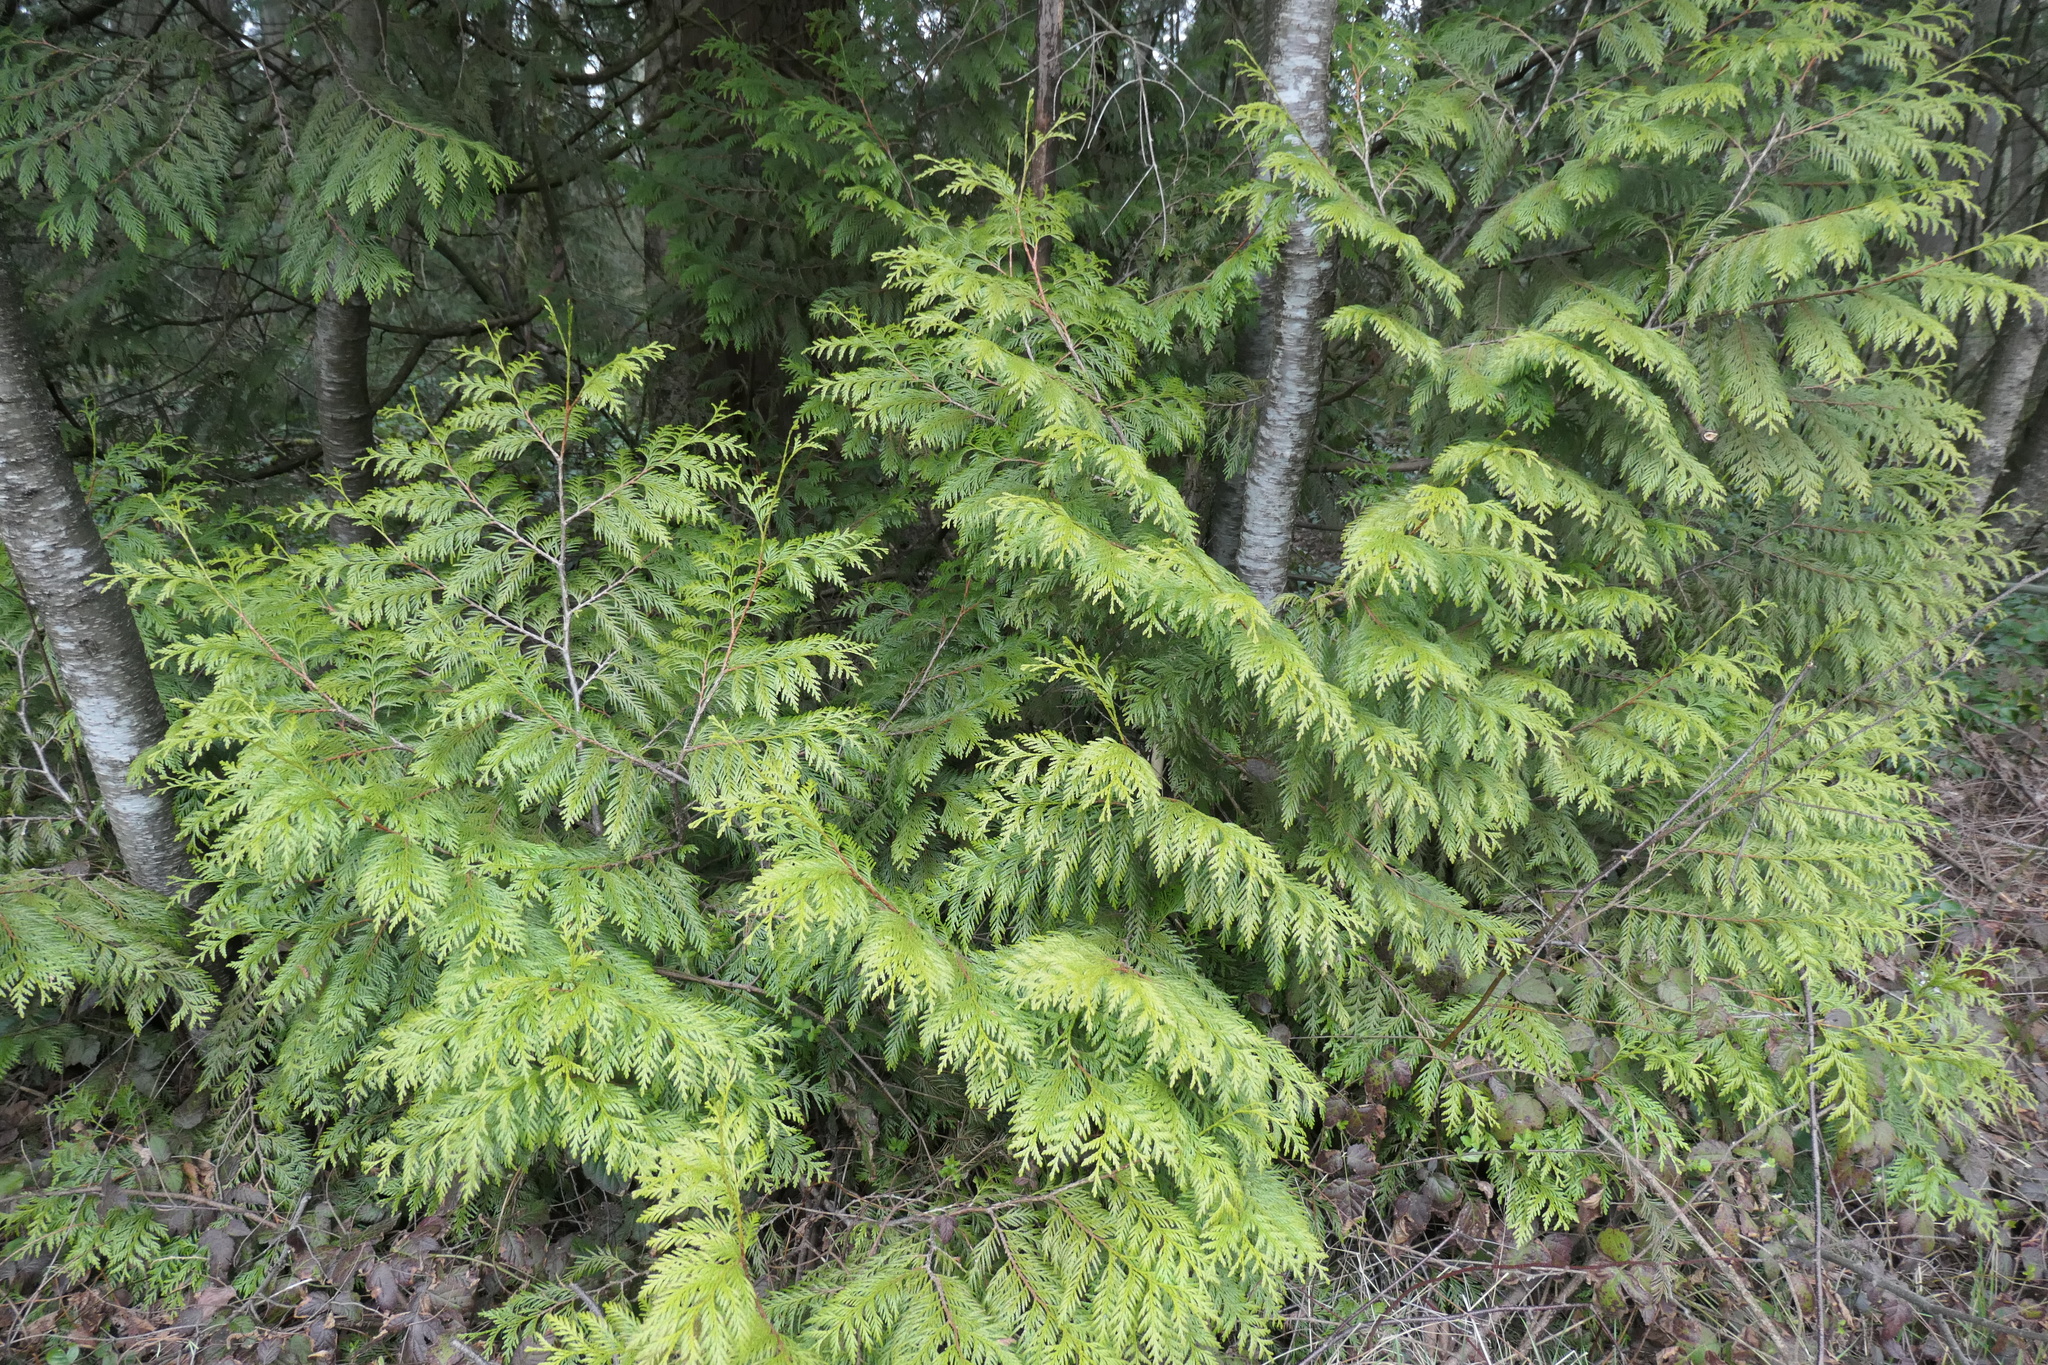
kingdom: Plantae
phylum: Tracheophyta
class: Pinopsida
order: Pinales
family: Cupressaceae
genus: Thuja
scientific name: Thuja plicata
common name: Western red-cedar
